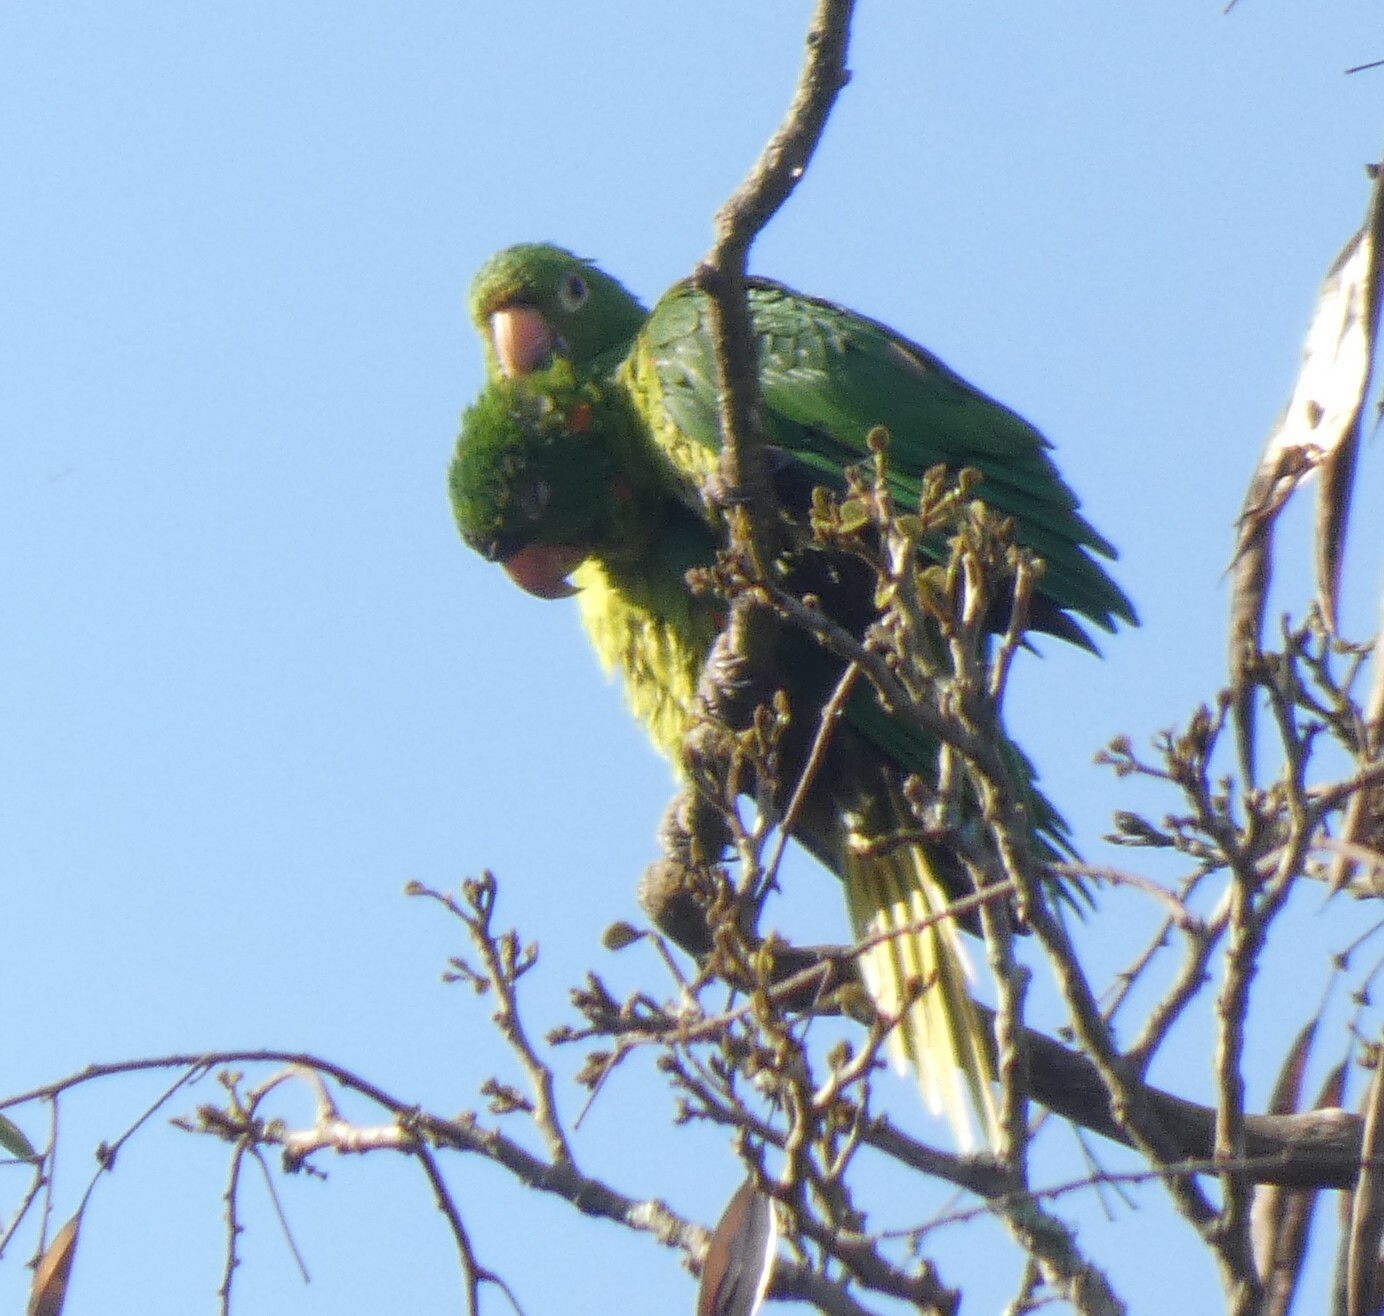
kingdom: Animalia
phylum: Chordata
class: Aves
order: Psittaciformes
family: Psittacidae
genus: Aratinga
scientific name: Aratinga leucophthalma
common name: White-eyed parakeet
